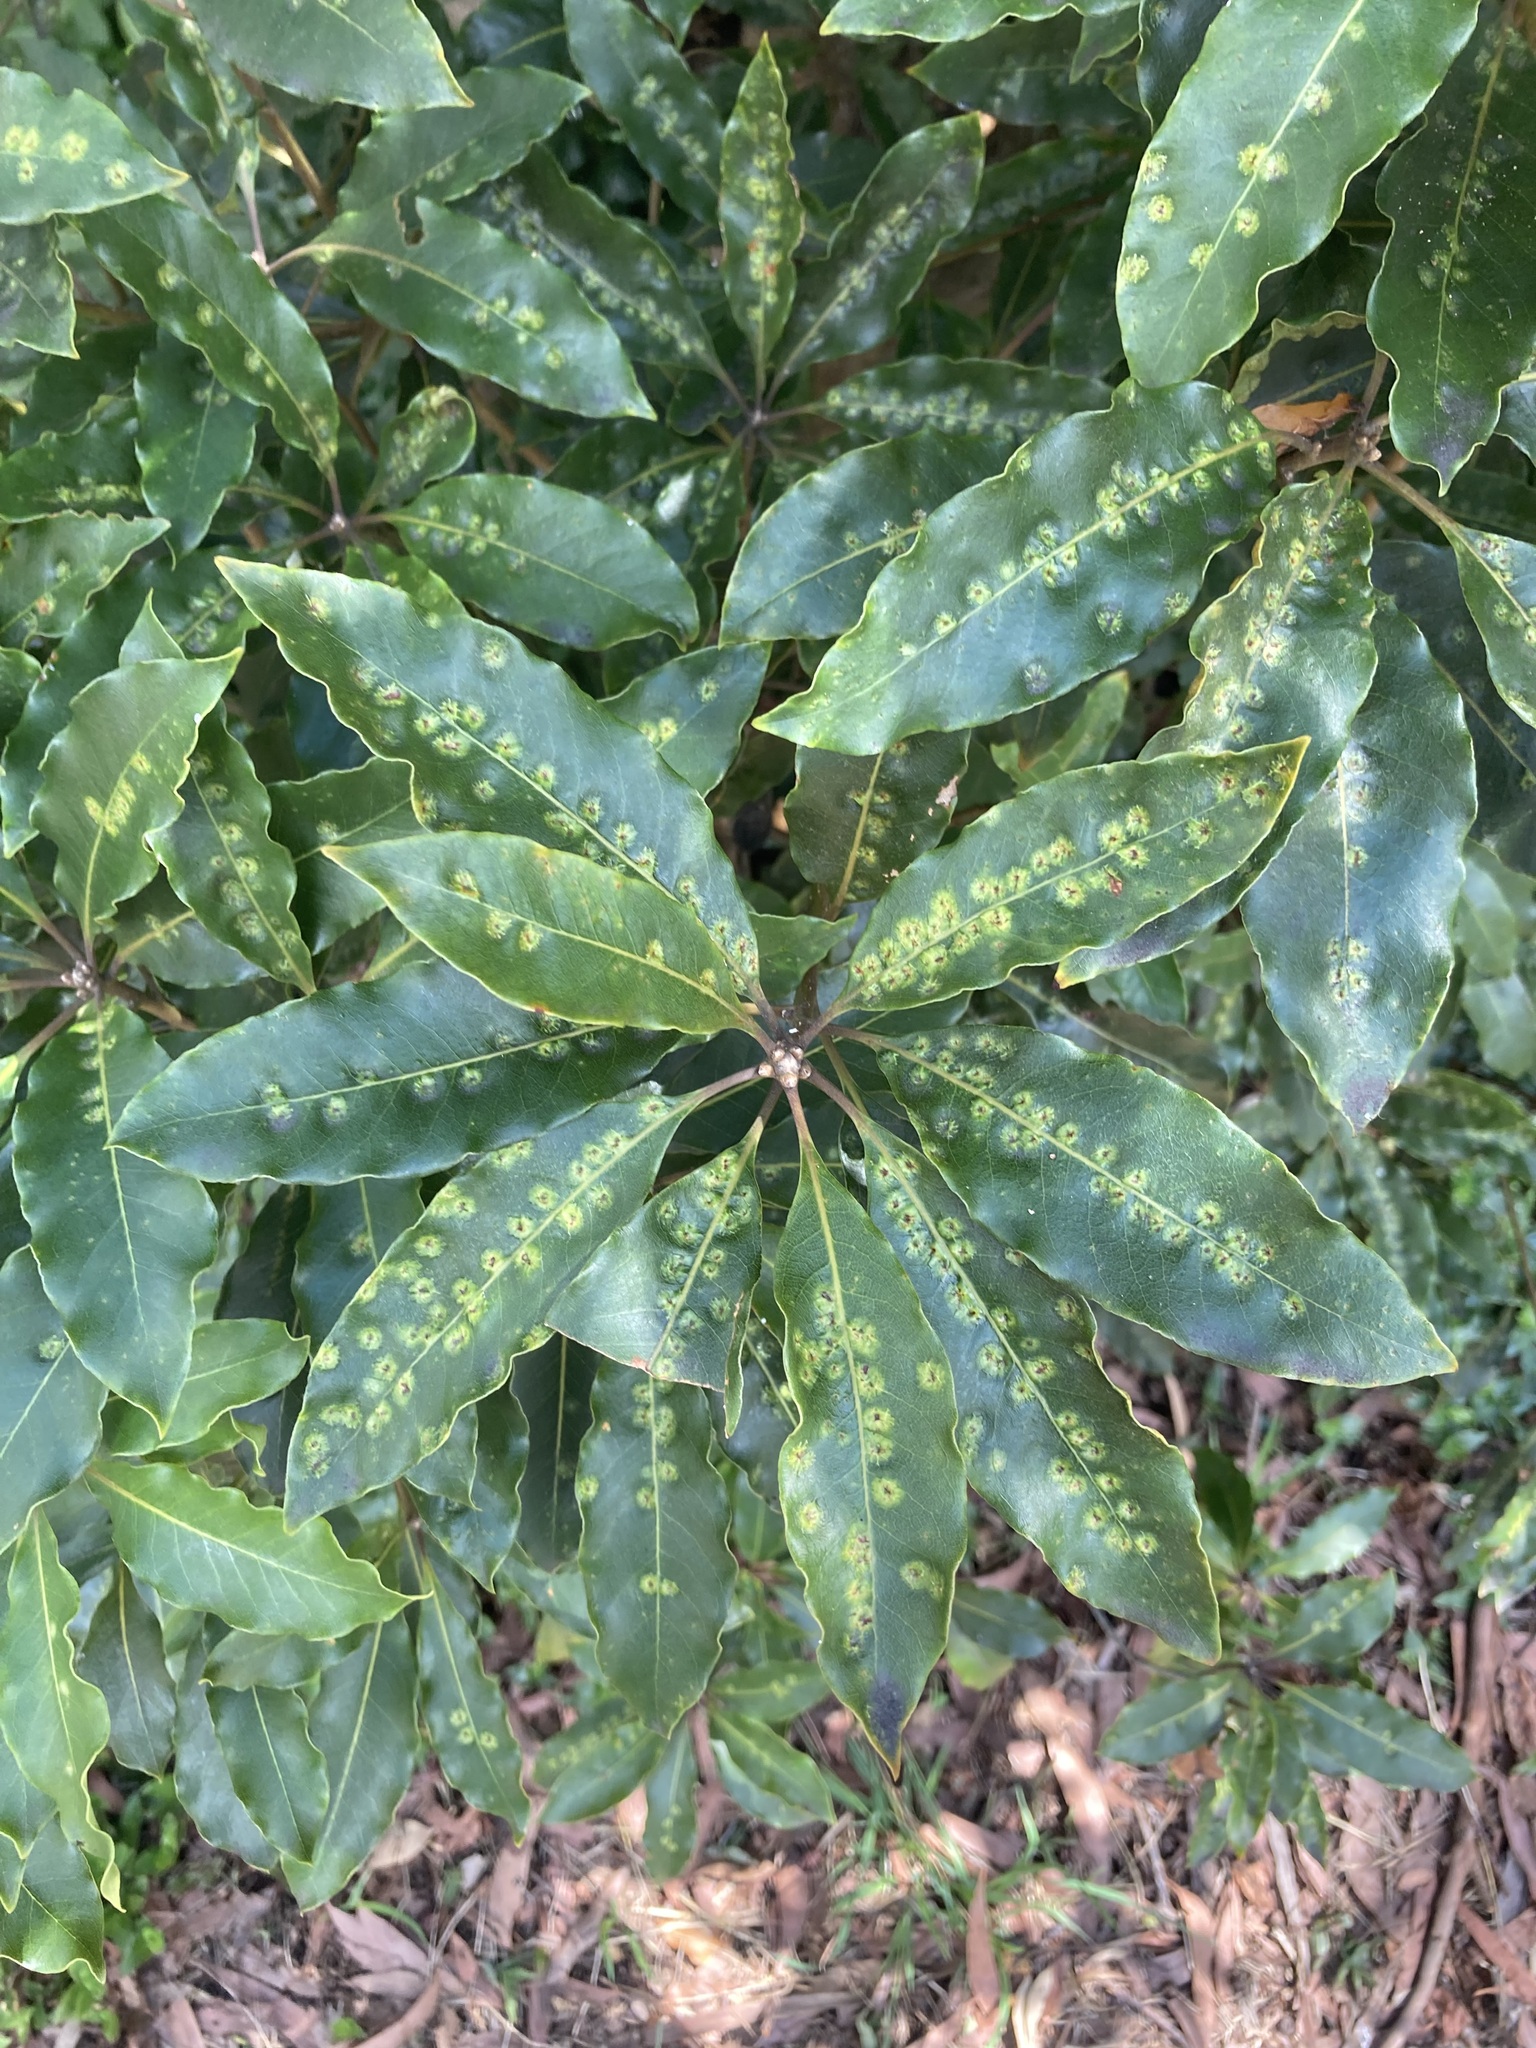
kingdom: Animalia
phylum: Arthropoda
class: Insecta
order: Diptera
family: Agromyzidae
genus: Phytoliriomyza
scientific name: Phytoliriomyza pittosporophylli
